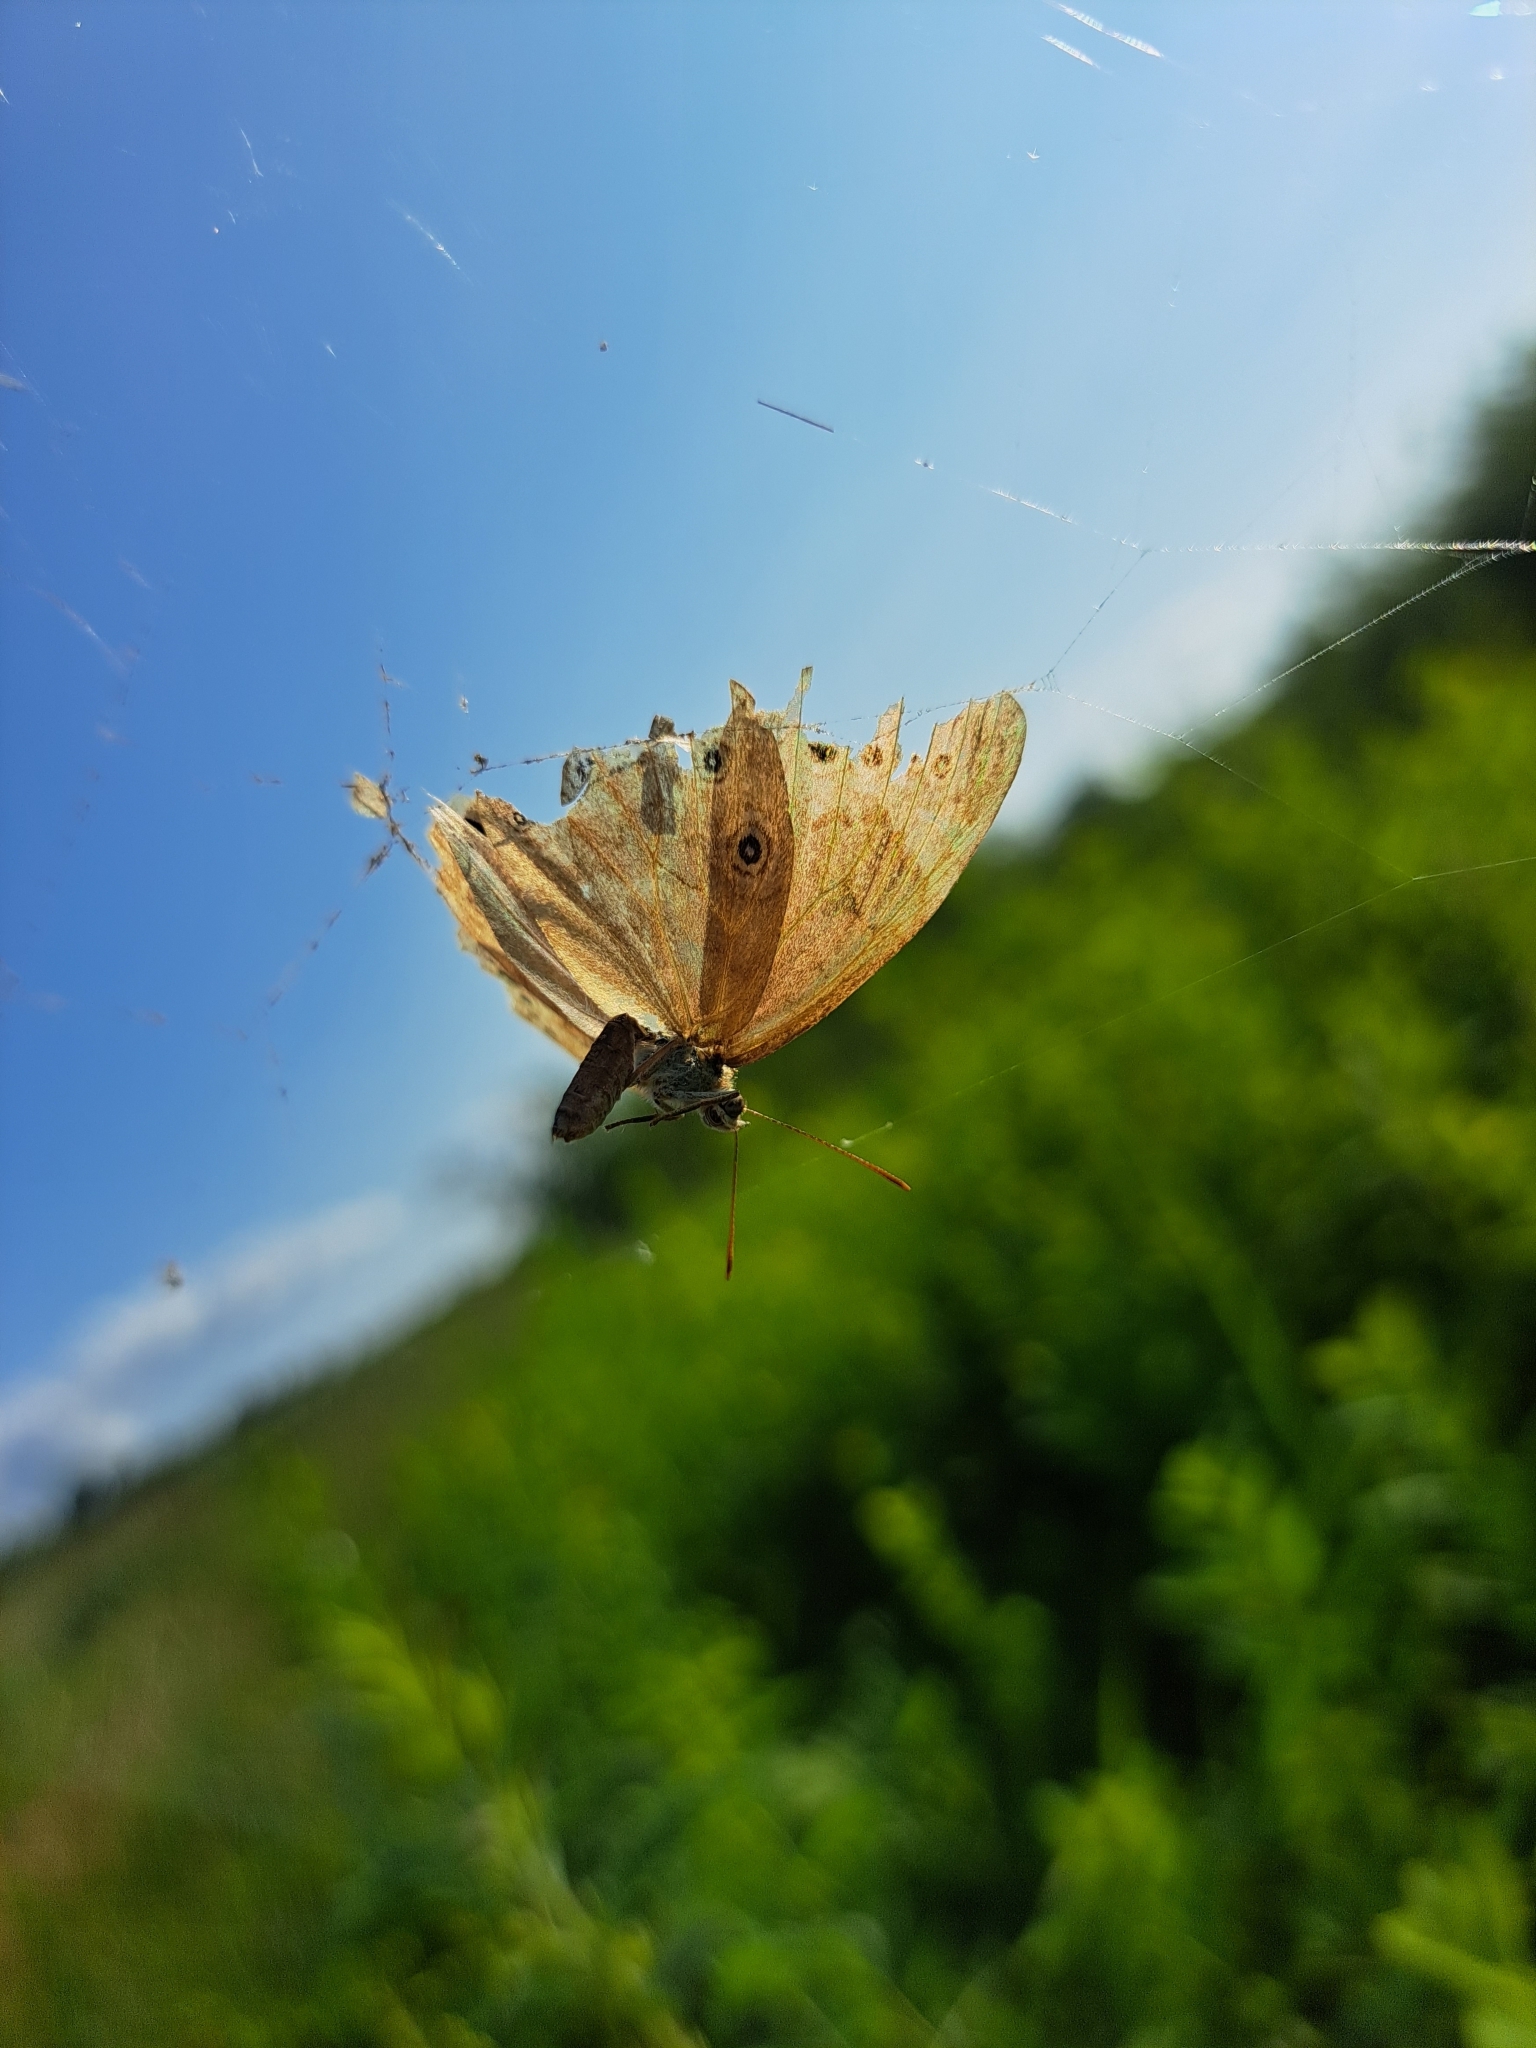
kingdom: Animalia
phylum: Arthropoda
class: Insecta
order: Lepidoptera
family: Nymphalidae
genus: Lethe
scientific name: Lethe eurydice
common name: Eyed brown
